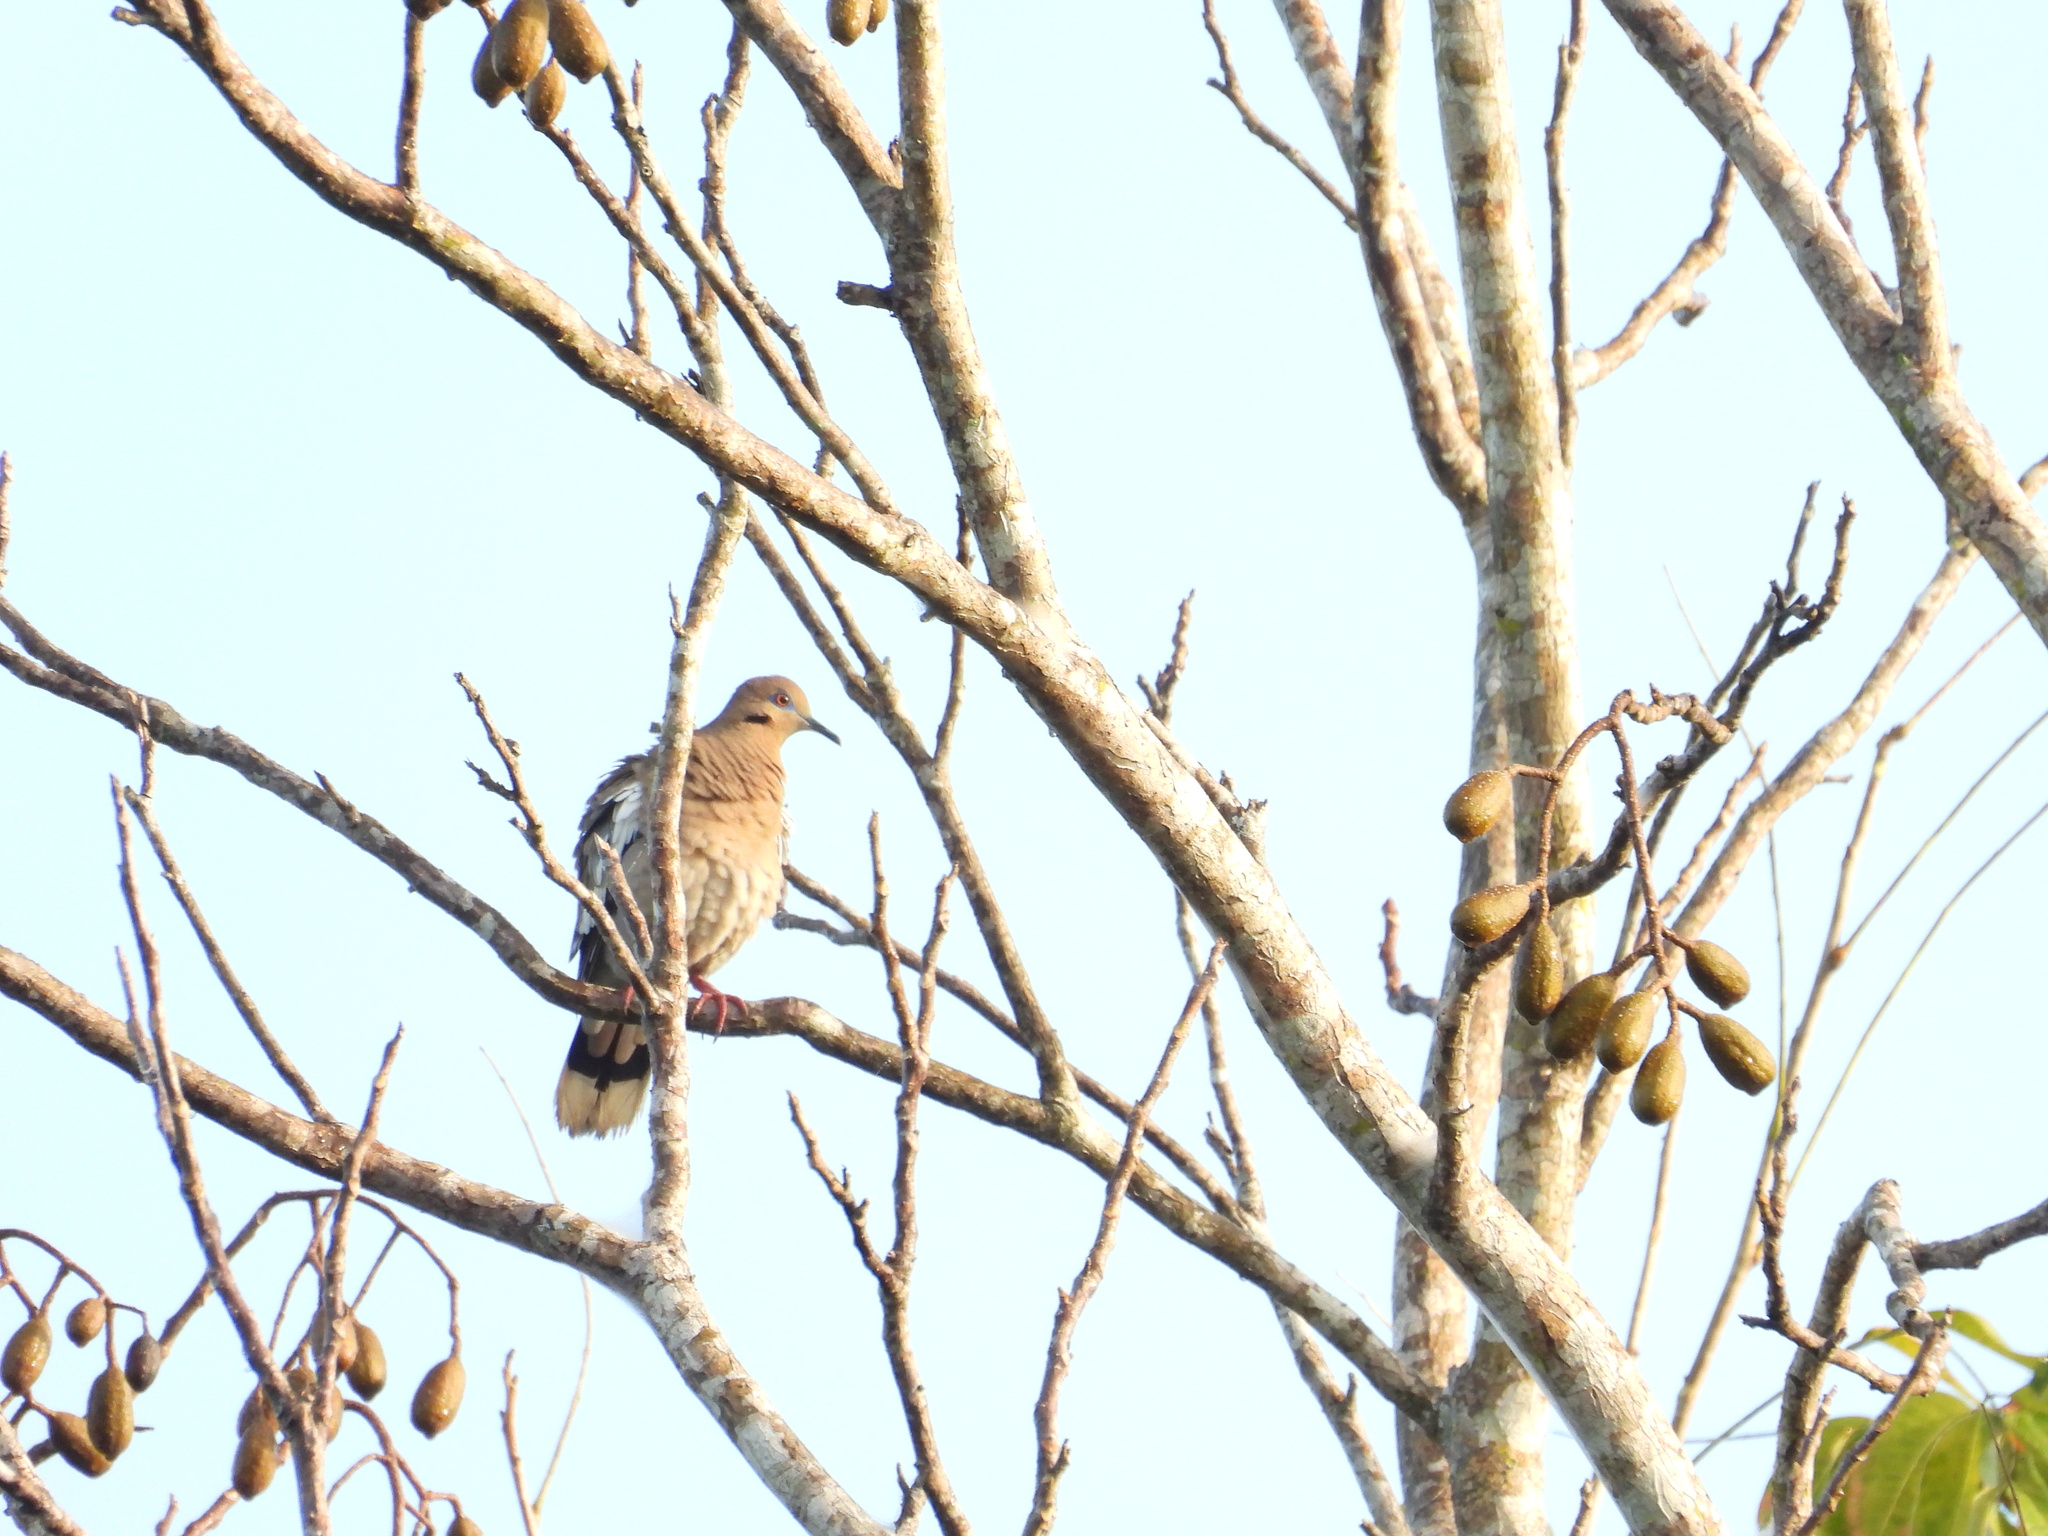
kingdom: Animalia
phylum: Chordata
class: Aves
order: Columbiformes
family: Columbidae
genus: Zenaida
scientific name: Zenaida asiatica
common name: White-winged dove
